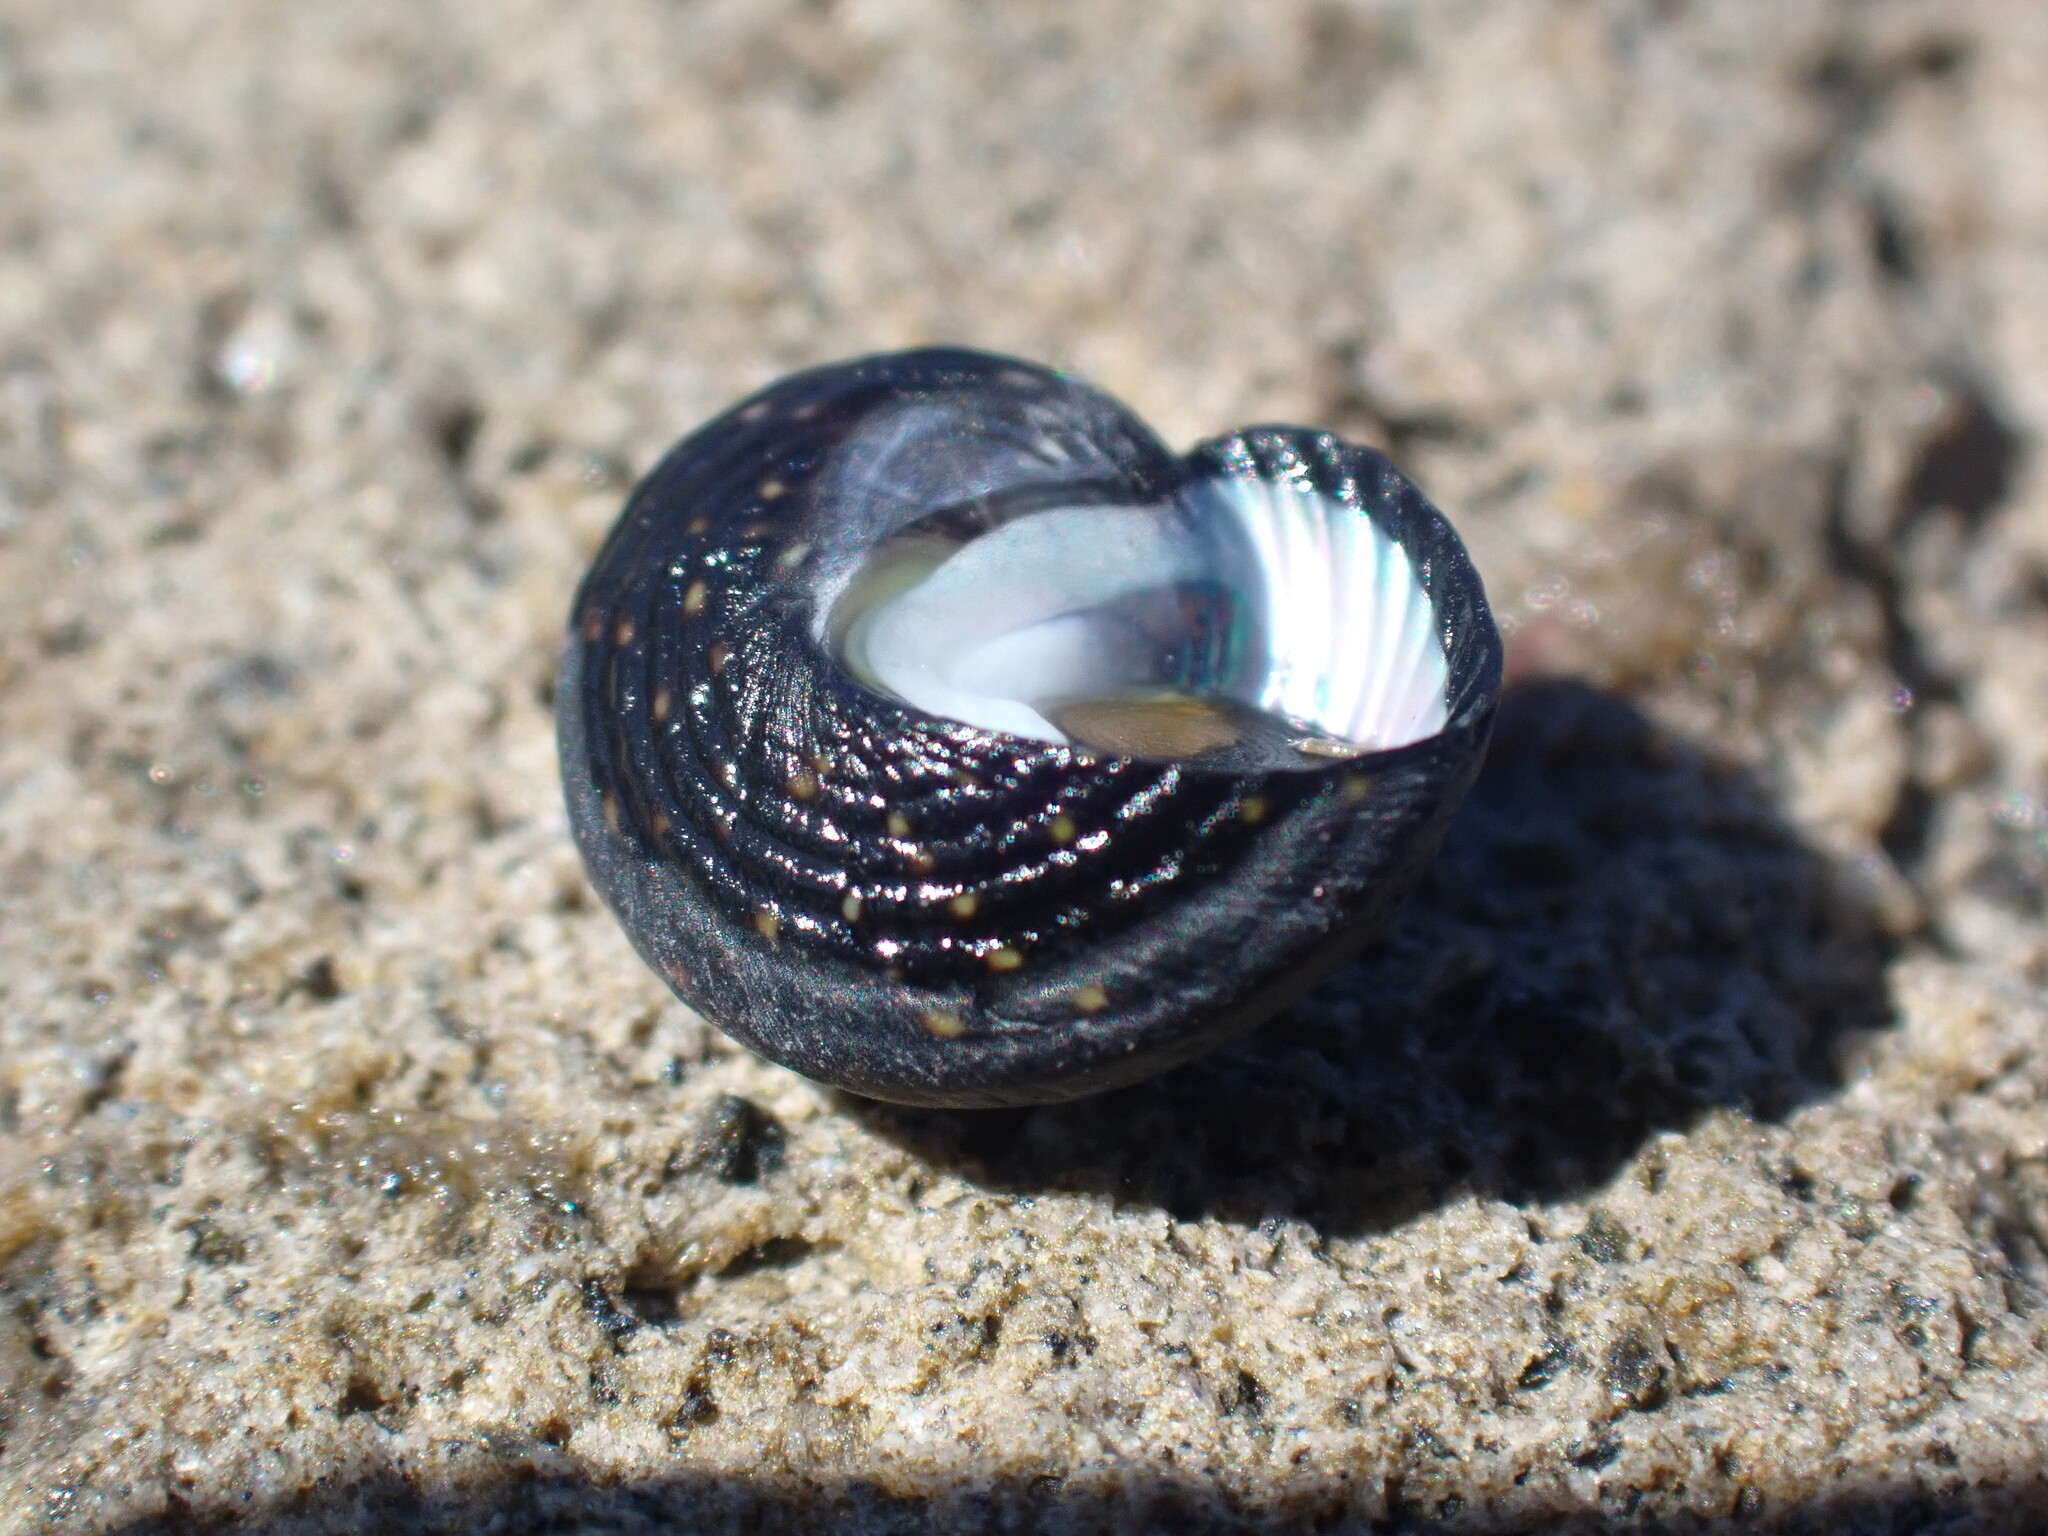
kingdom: Animalia
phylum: Mollusca
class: Gastropoda
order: Trochida
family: Trochidae
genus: Diloma
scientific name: Diloma aridum
